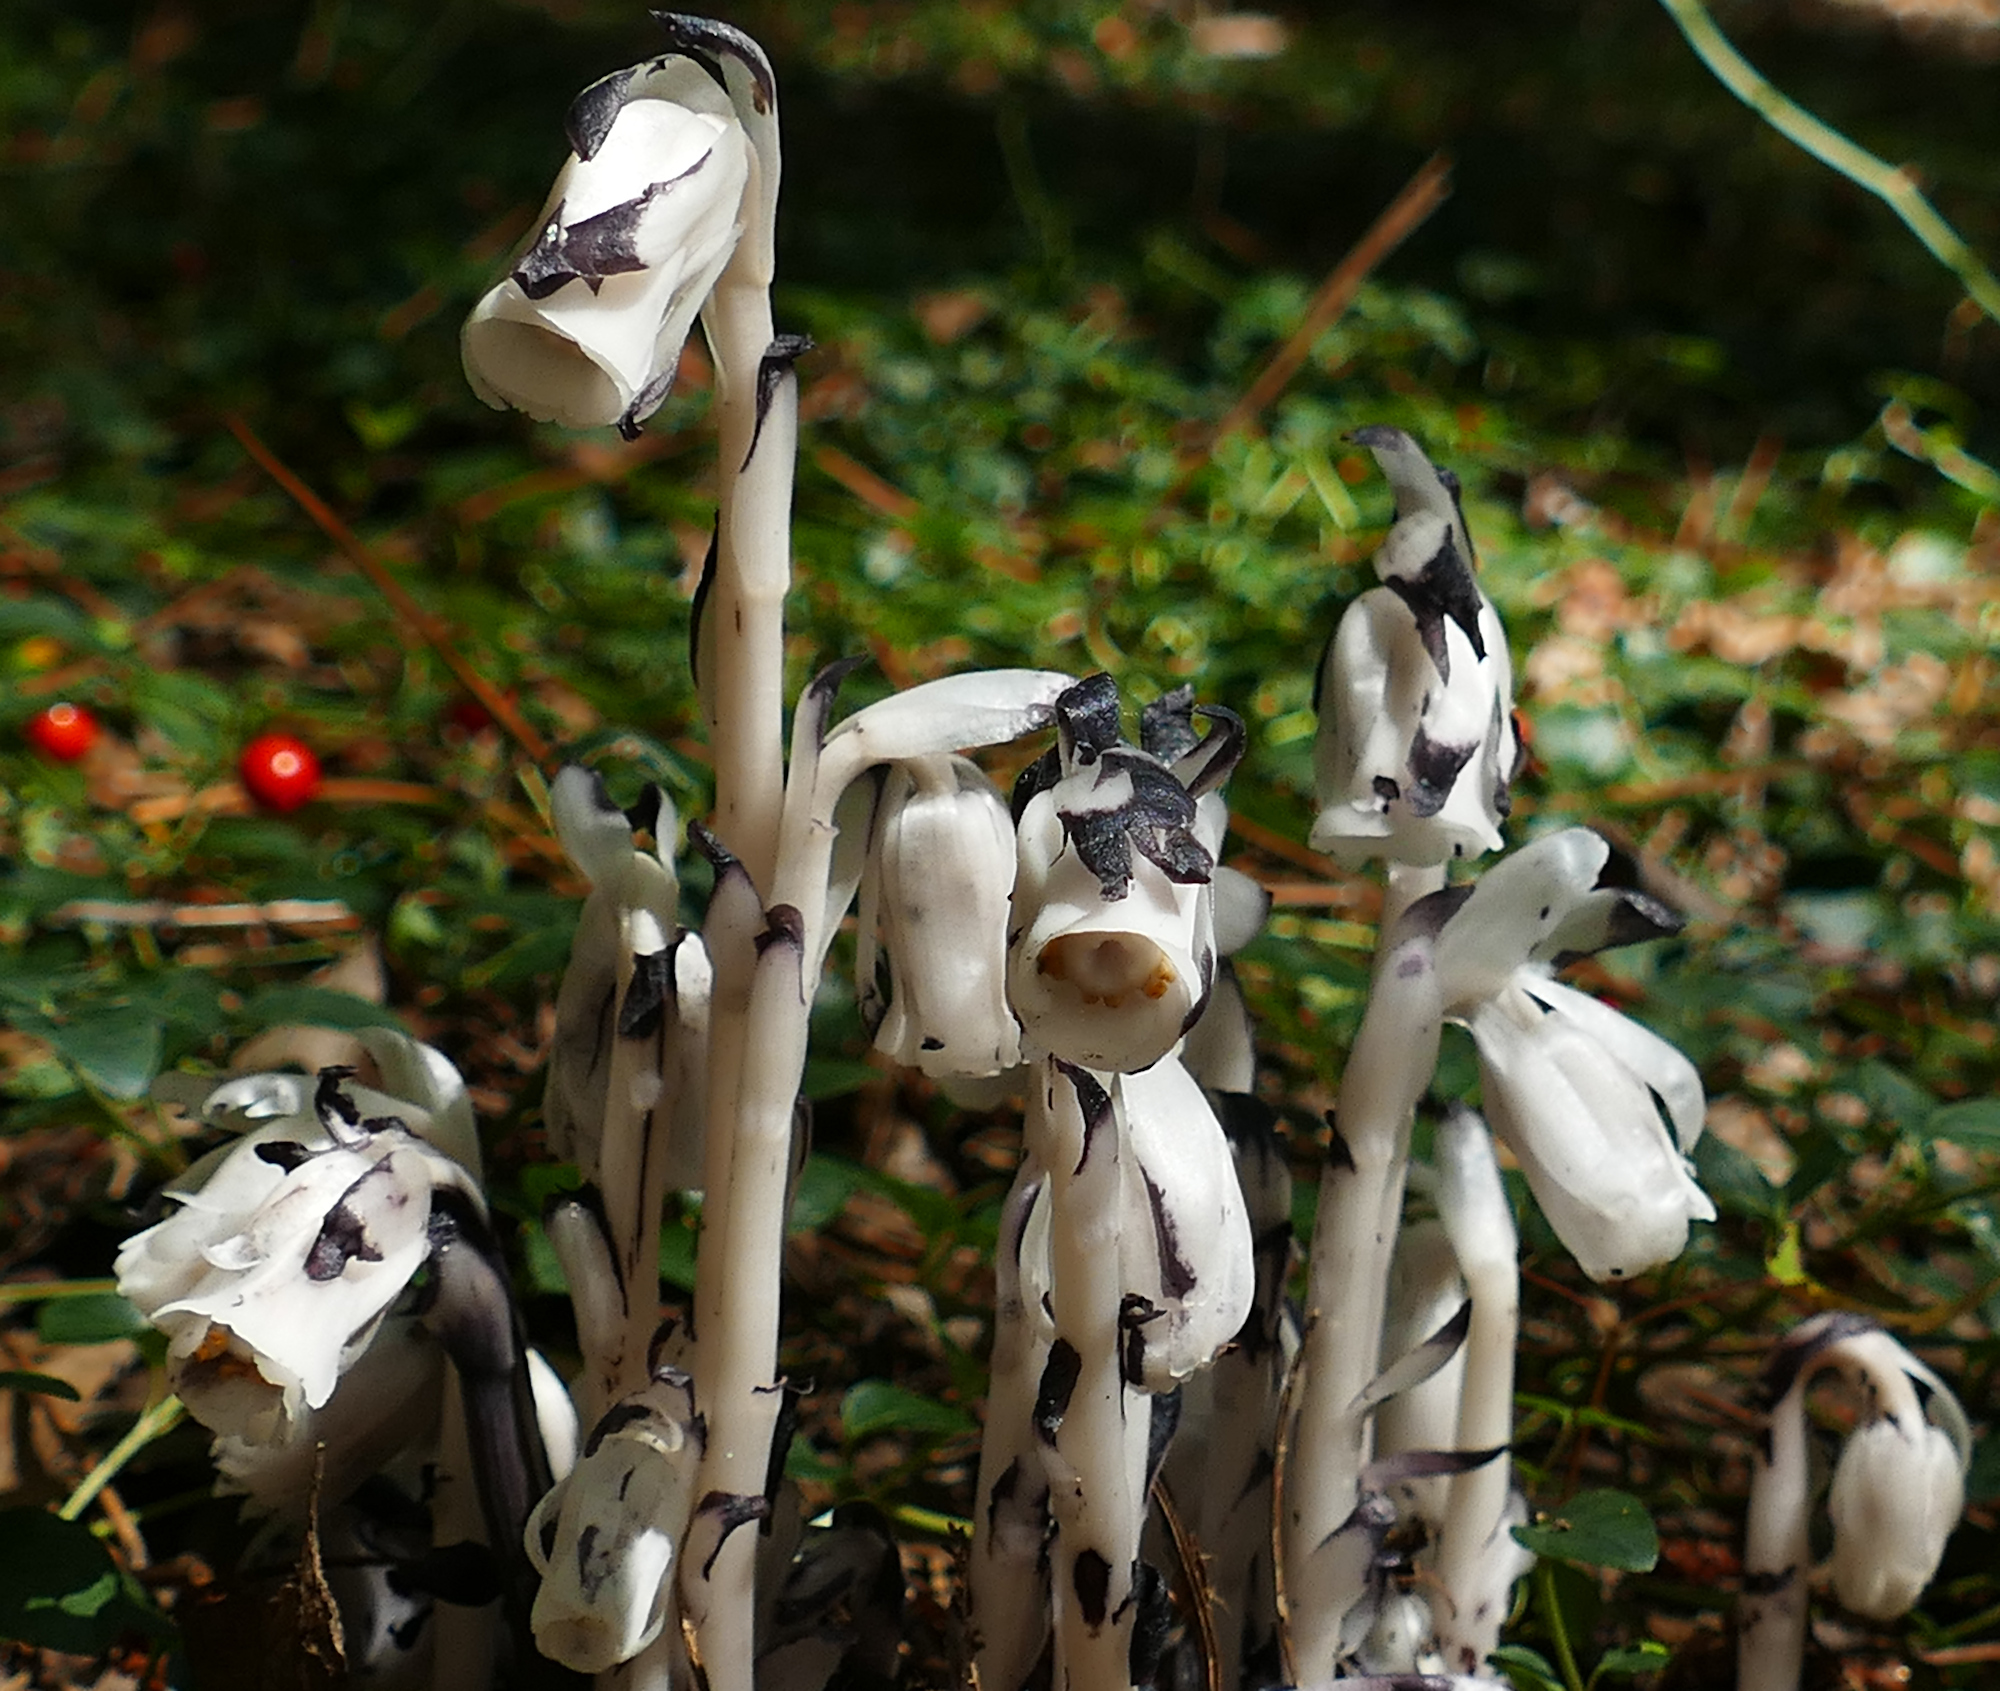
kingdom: Plantae
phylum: Tracheophyta
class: Magnoliopsida
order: Ericales
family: Ericaceae
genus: Monotropa
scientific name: Monotropa uniflora
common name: Convulsion root
